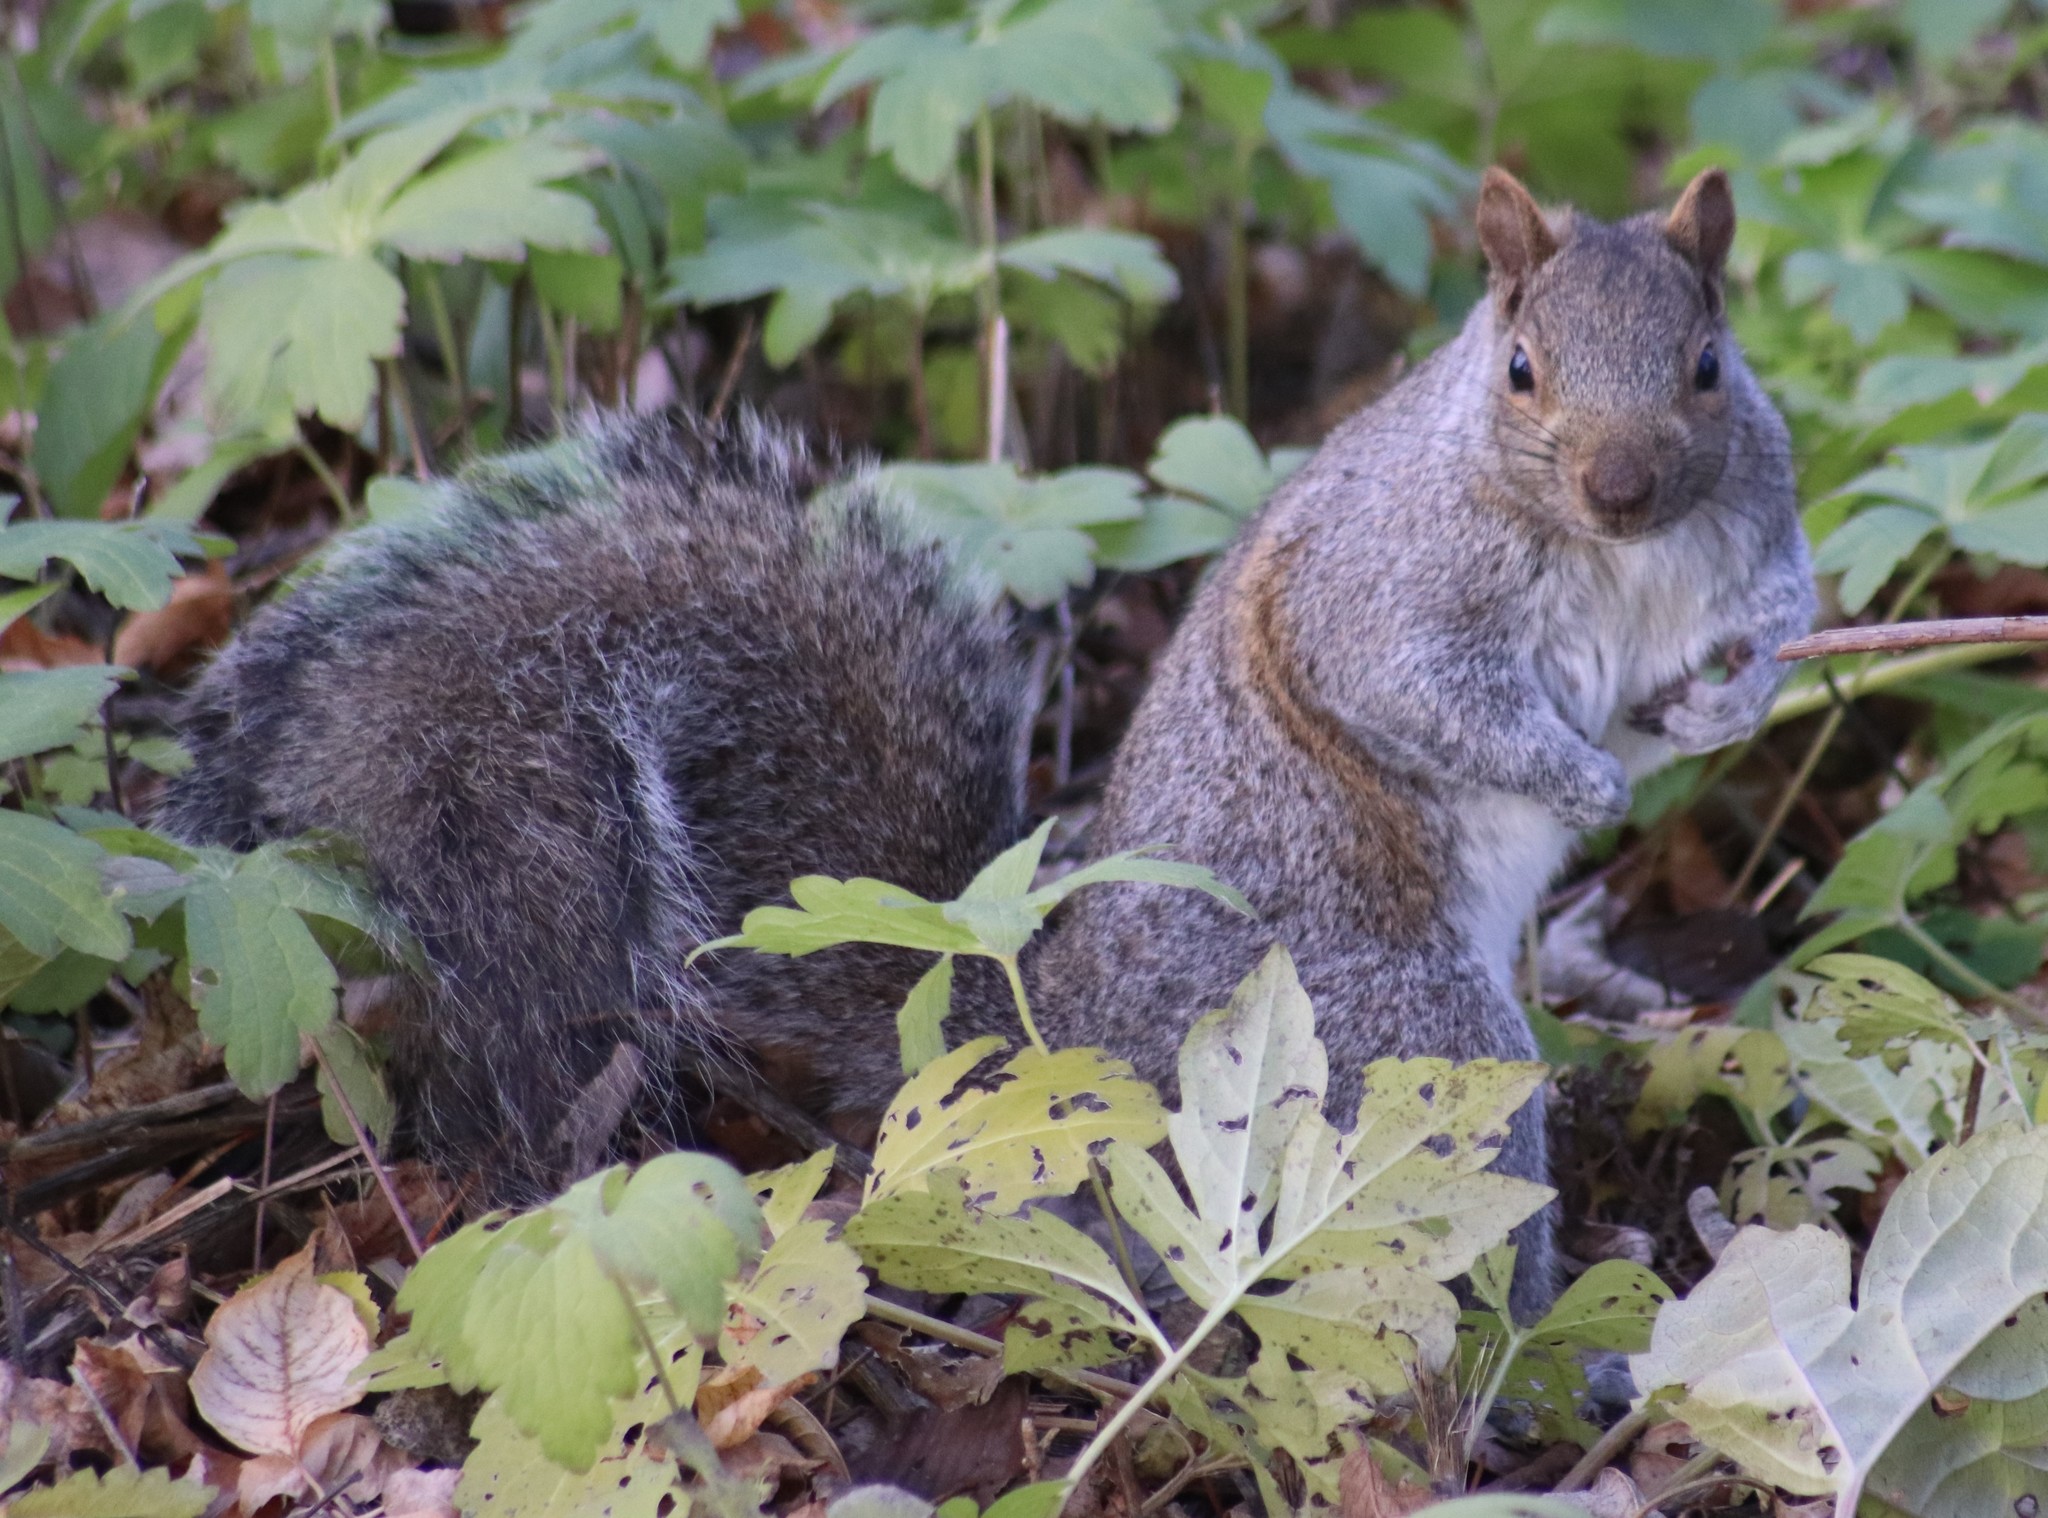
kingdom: Animalia
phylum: Chordata
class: Mammalia
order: Rodentia
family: Sciuridae
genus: Sciurus
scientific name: Sciurus carolinensis
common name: Eastern gray squirrel
